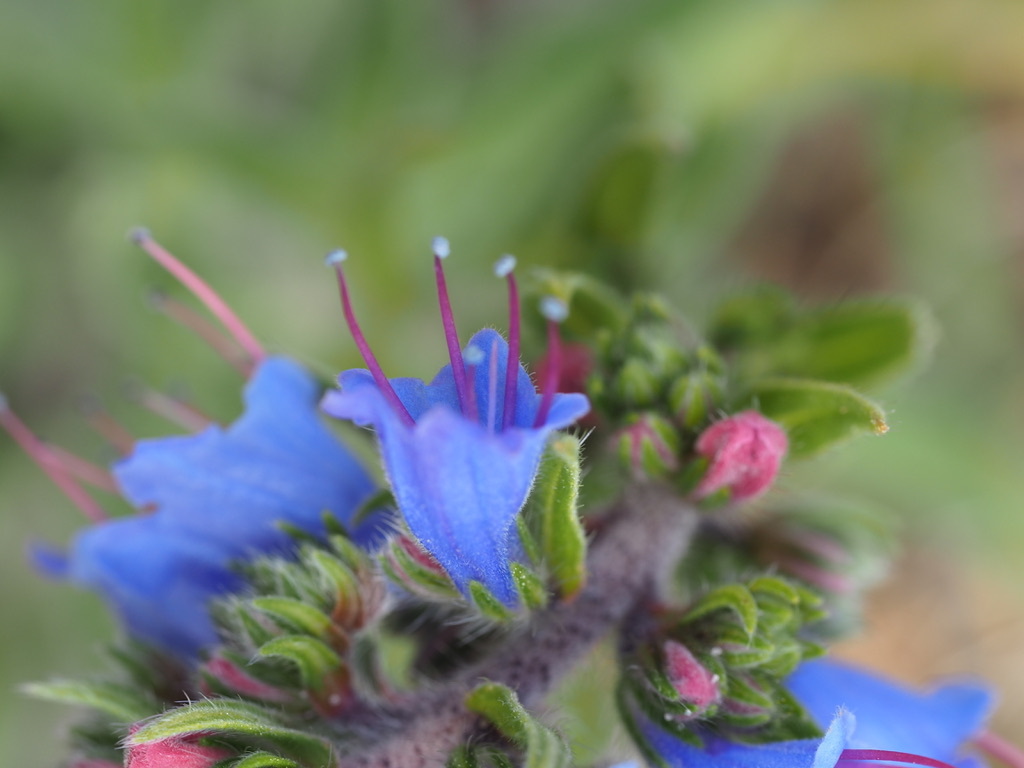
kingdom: Plantae
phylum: Tracheophyta
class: Magnoliopsida
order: Boraginales
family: Boraginaceae
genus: Echium
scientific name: Echium vulgare
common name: Common viper's bugloss
